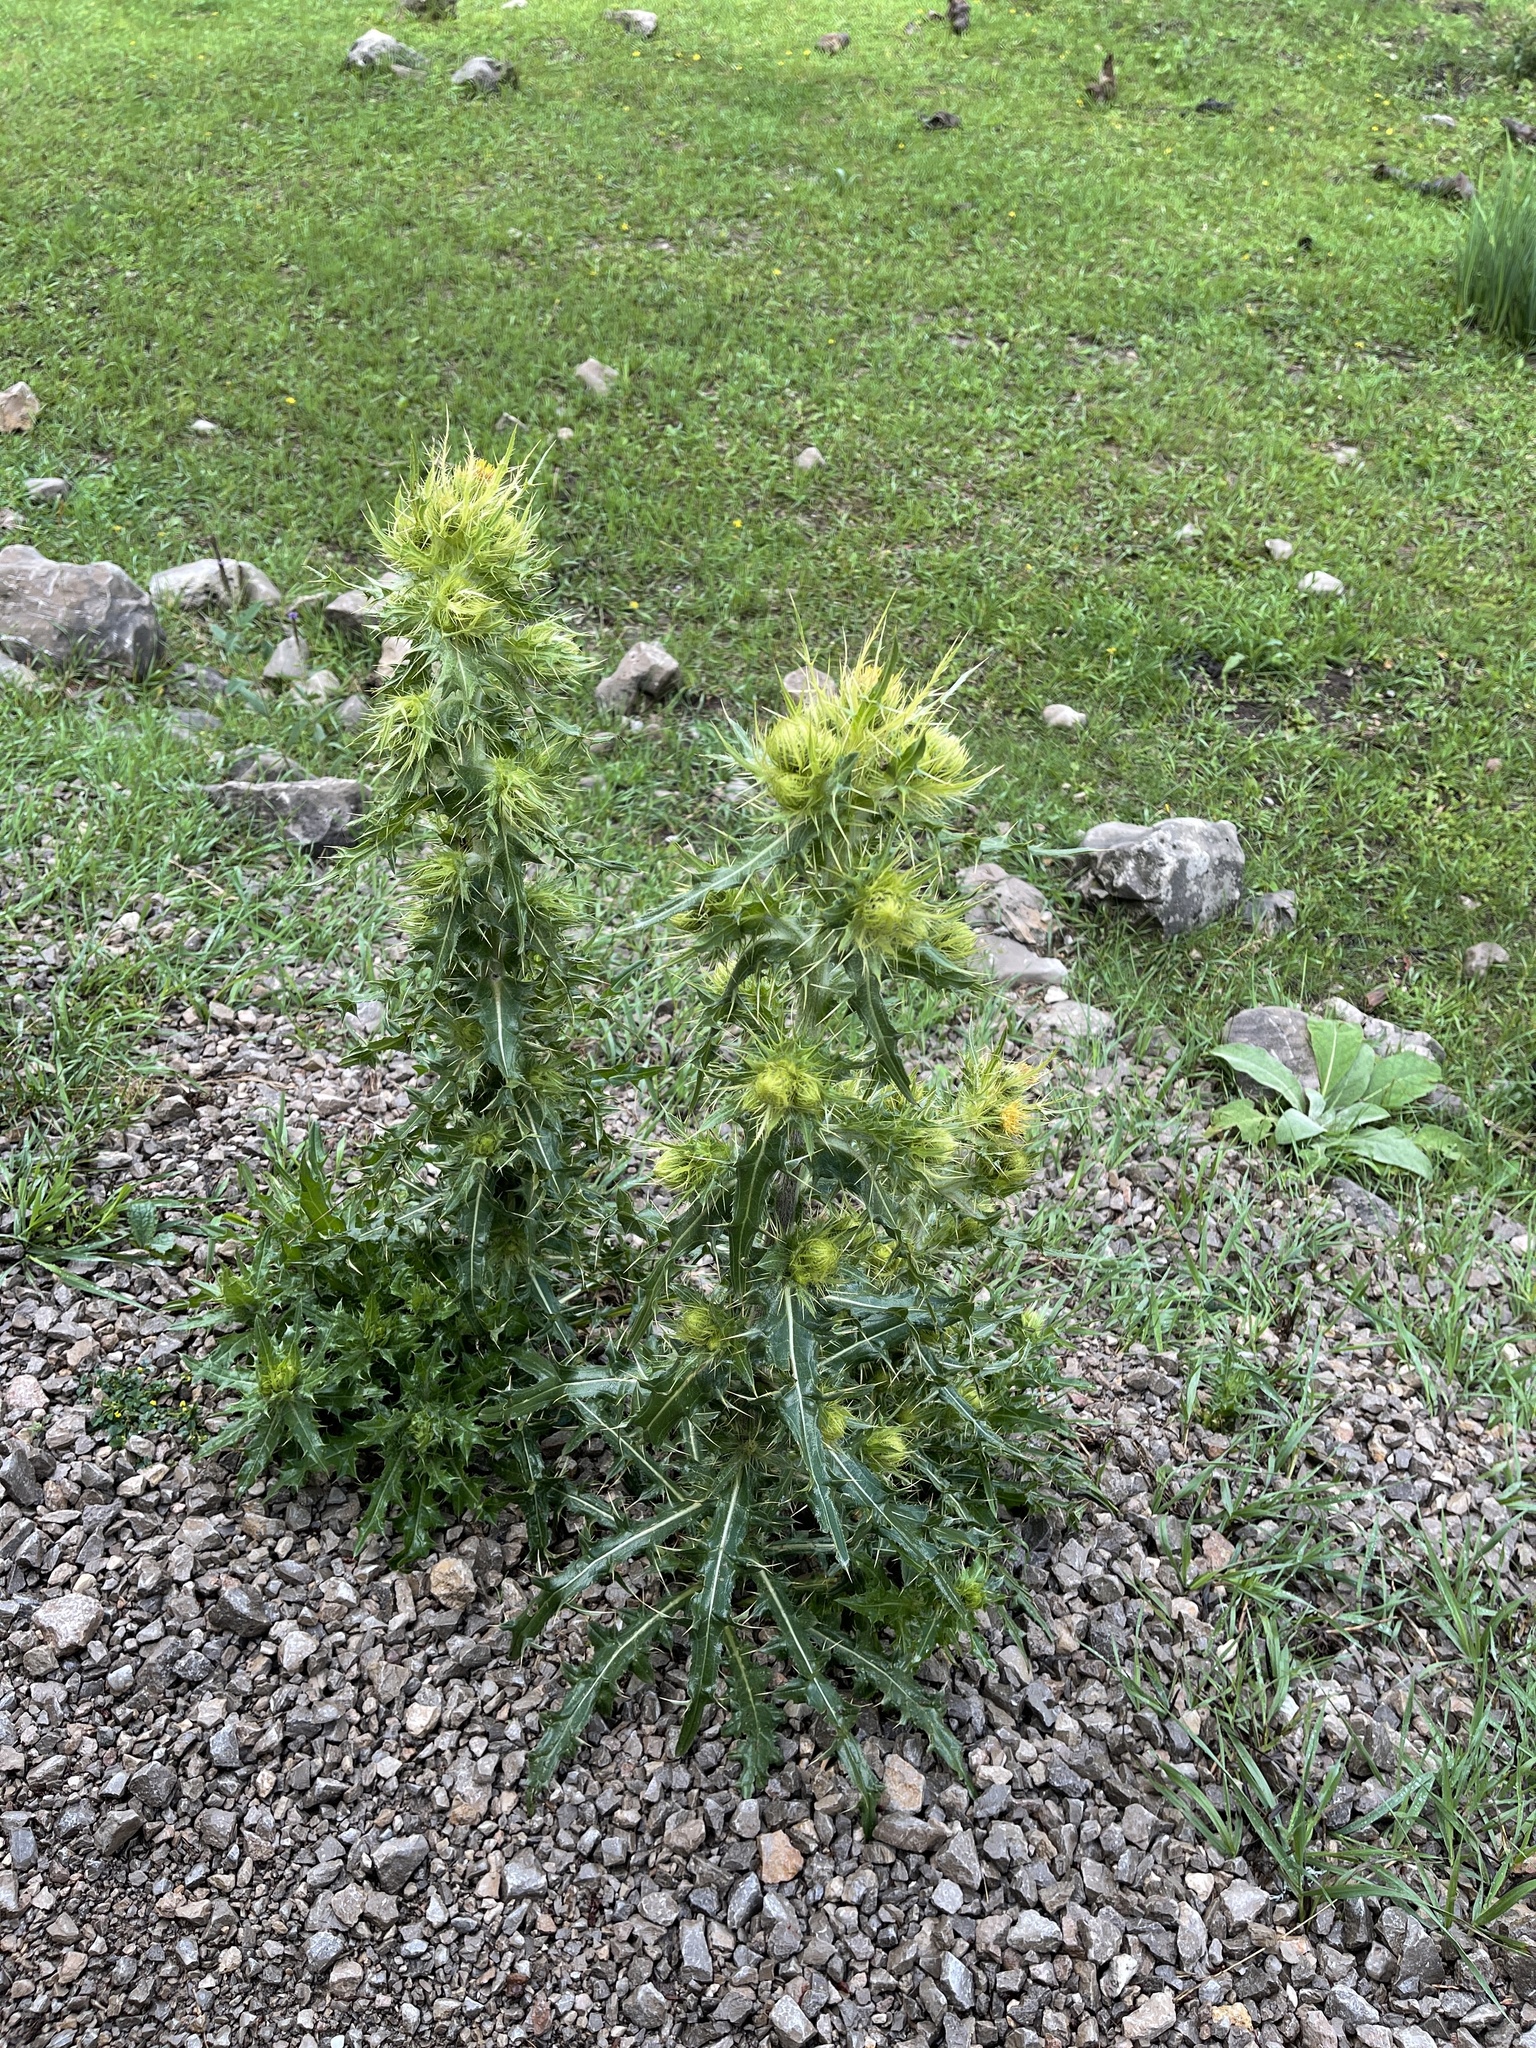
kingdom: Plantae
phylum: Tracheophyta
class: Magnoliopsida
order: Asterales
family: Asteraceae
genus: Cirsium
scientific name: Cirsium parryi
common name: Parry's thistle
